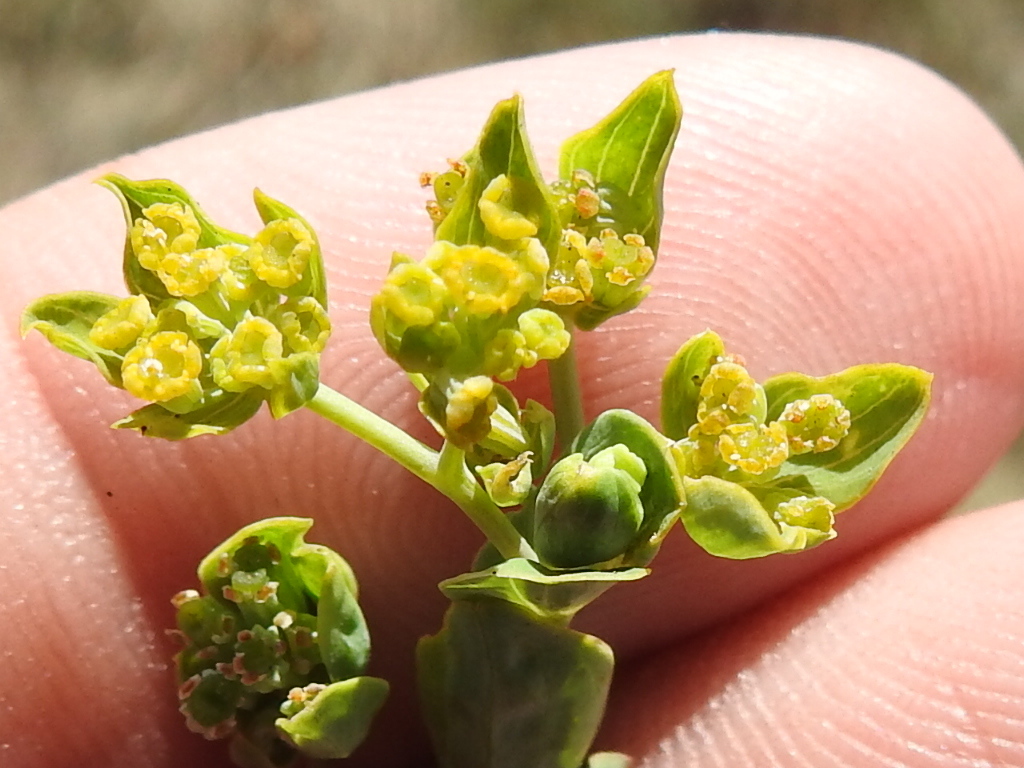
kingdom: Plantae
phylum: Tracheophyta
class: Magnoliopsida
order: Apiales
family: Apiaceae
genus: Bupleurum
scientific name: Bupleurum rotundifolium
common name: Thorow-wax
